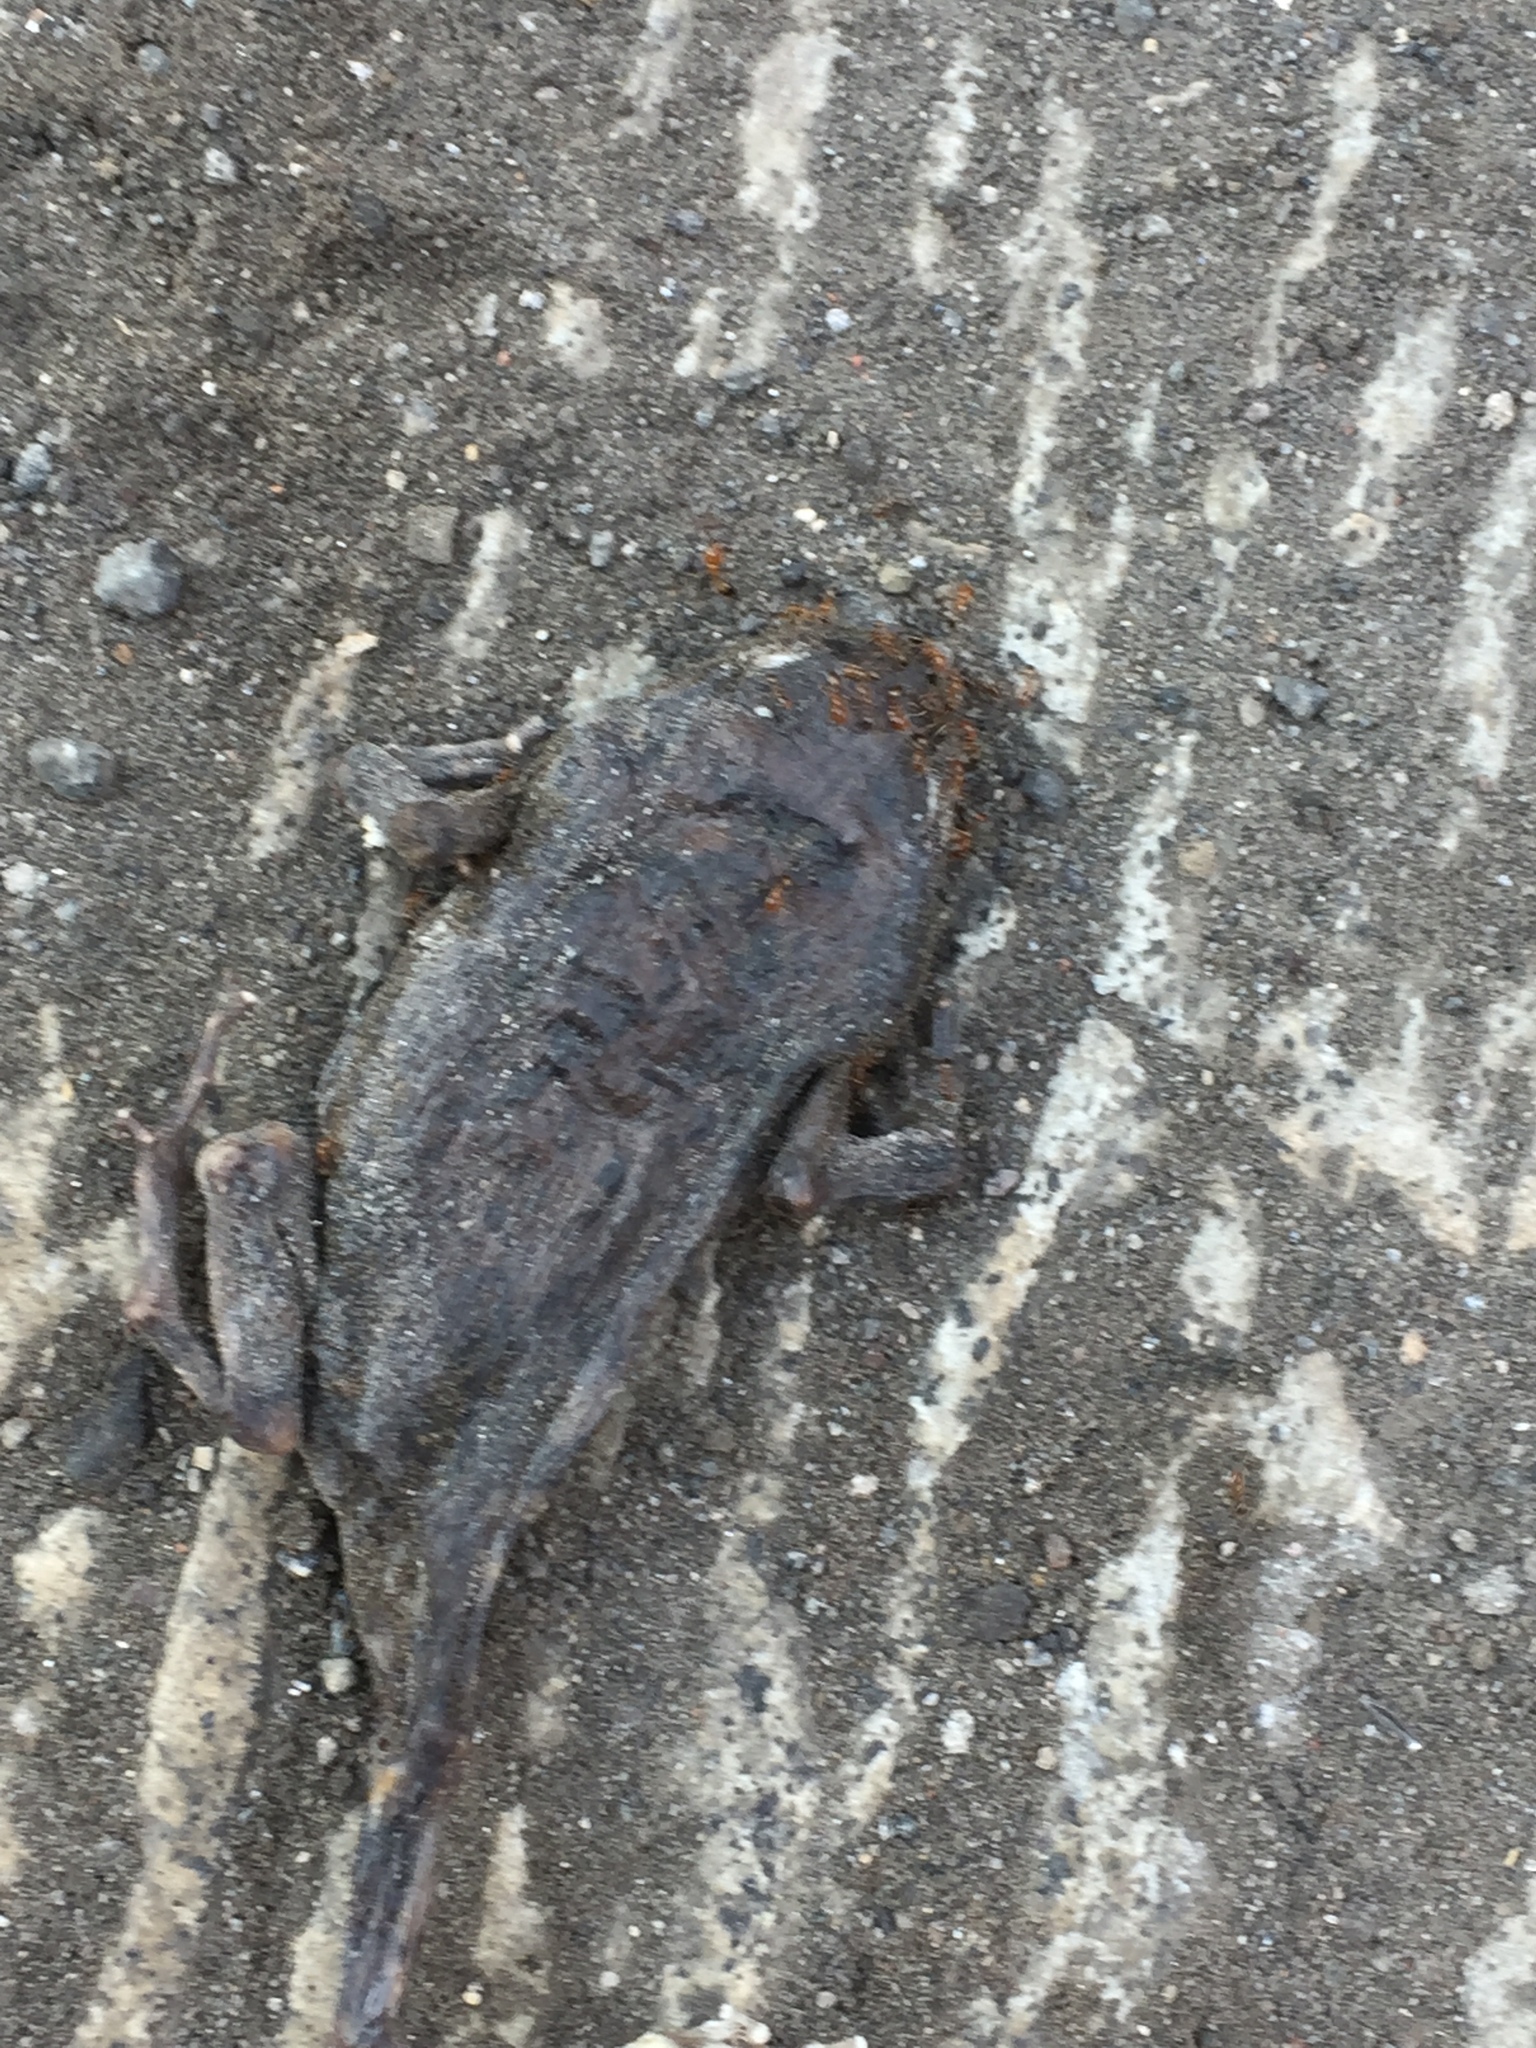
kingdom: Animalia
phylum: Chordata
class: Amphibia
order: Anura
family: Bufonidae
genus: Duttaphrynus
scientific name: Duttaphrynus melanostictus
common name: Common sunda toad
